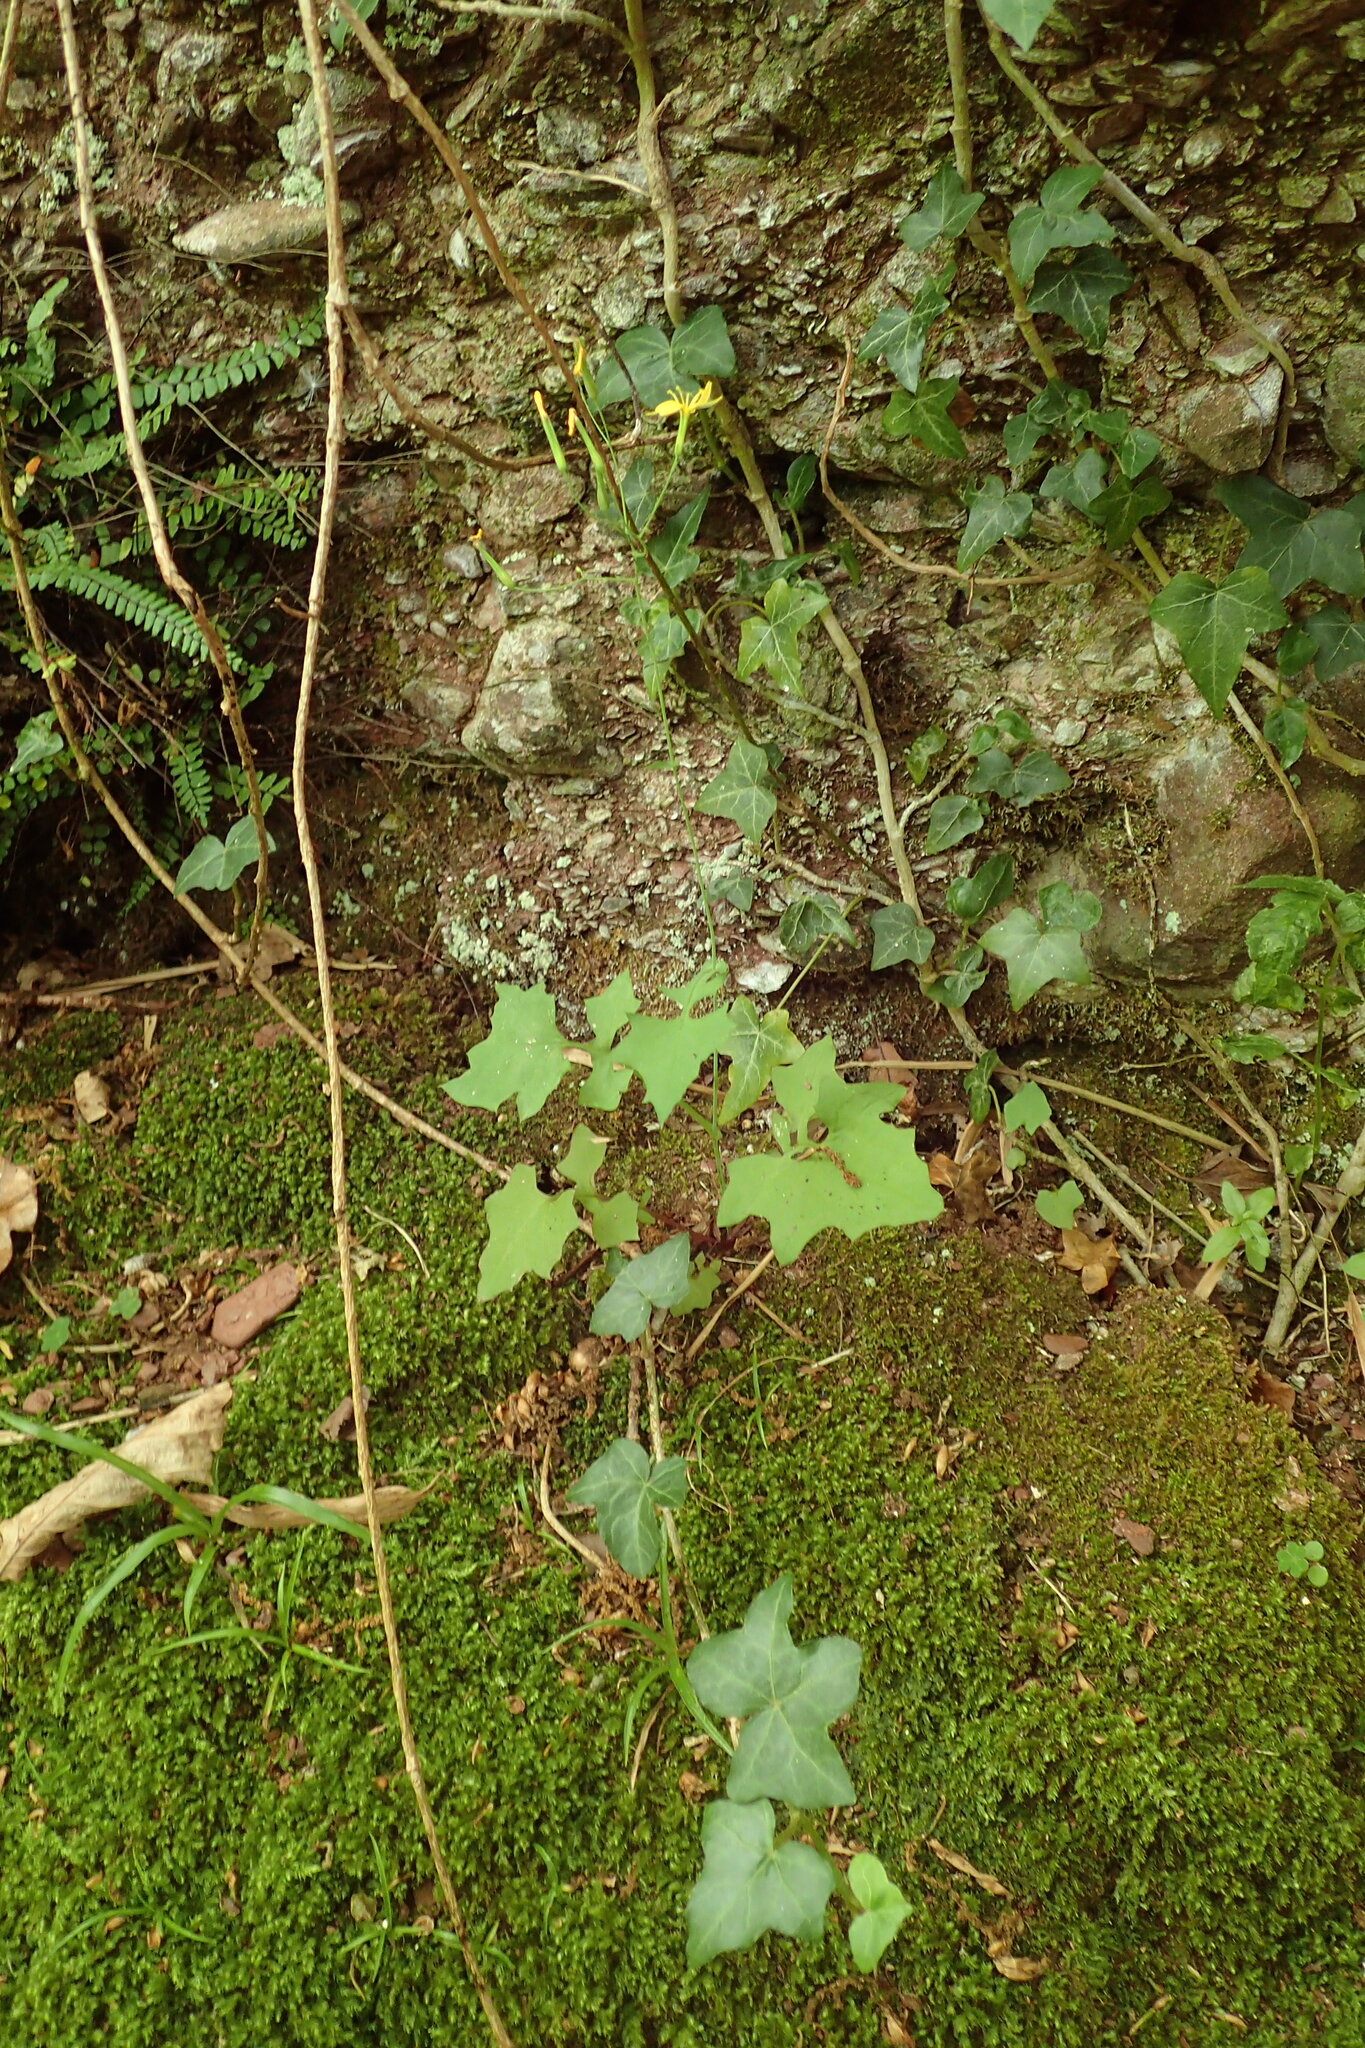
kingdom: Plantae
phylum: Tracheophyta
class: Magnoliopsida
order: Asterales
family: Asteraceae
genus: Mycelis
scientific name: Mycelis muralis
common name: Wall lettuce
